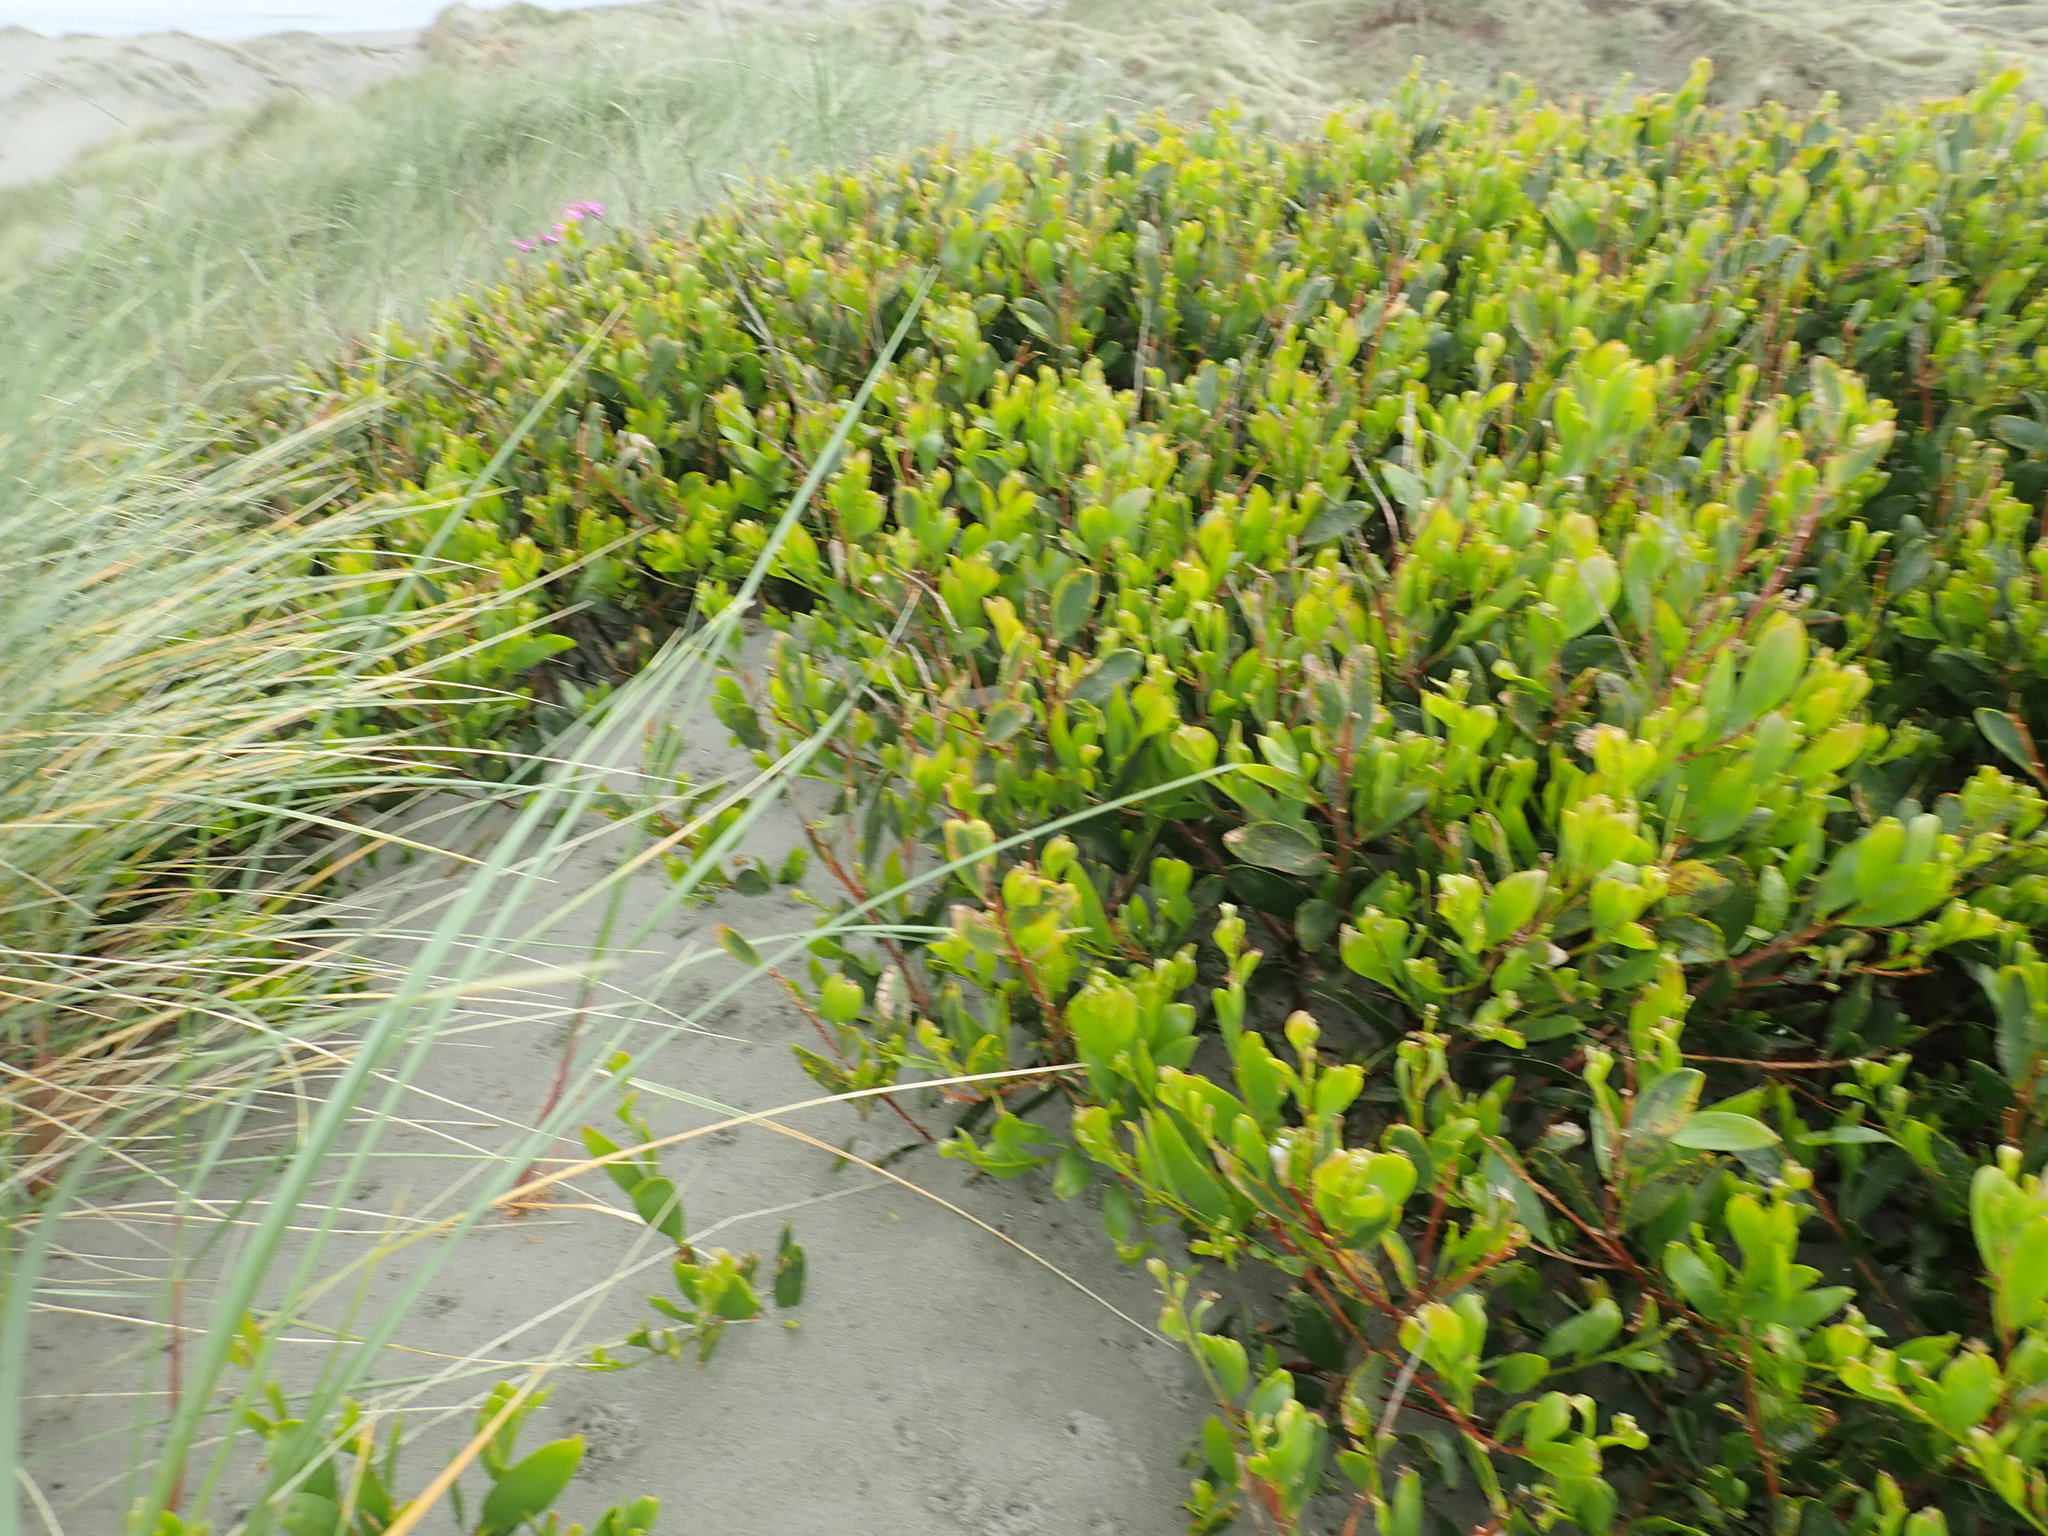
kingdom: Plantae
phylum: Tracheophyta
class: Magnoliopsida
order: Fabales
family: Fabaceae
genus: Acacia
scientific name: Acacia longifolia
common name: Sydney golden wattle
